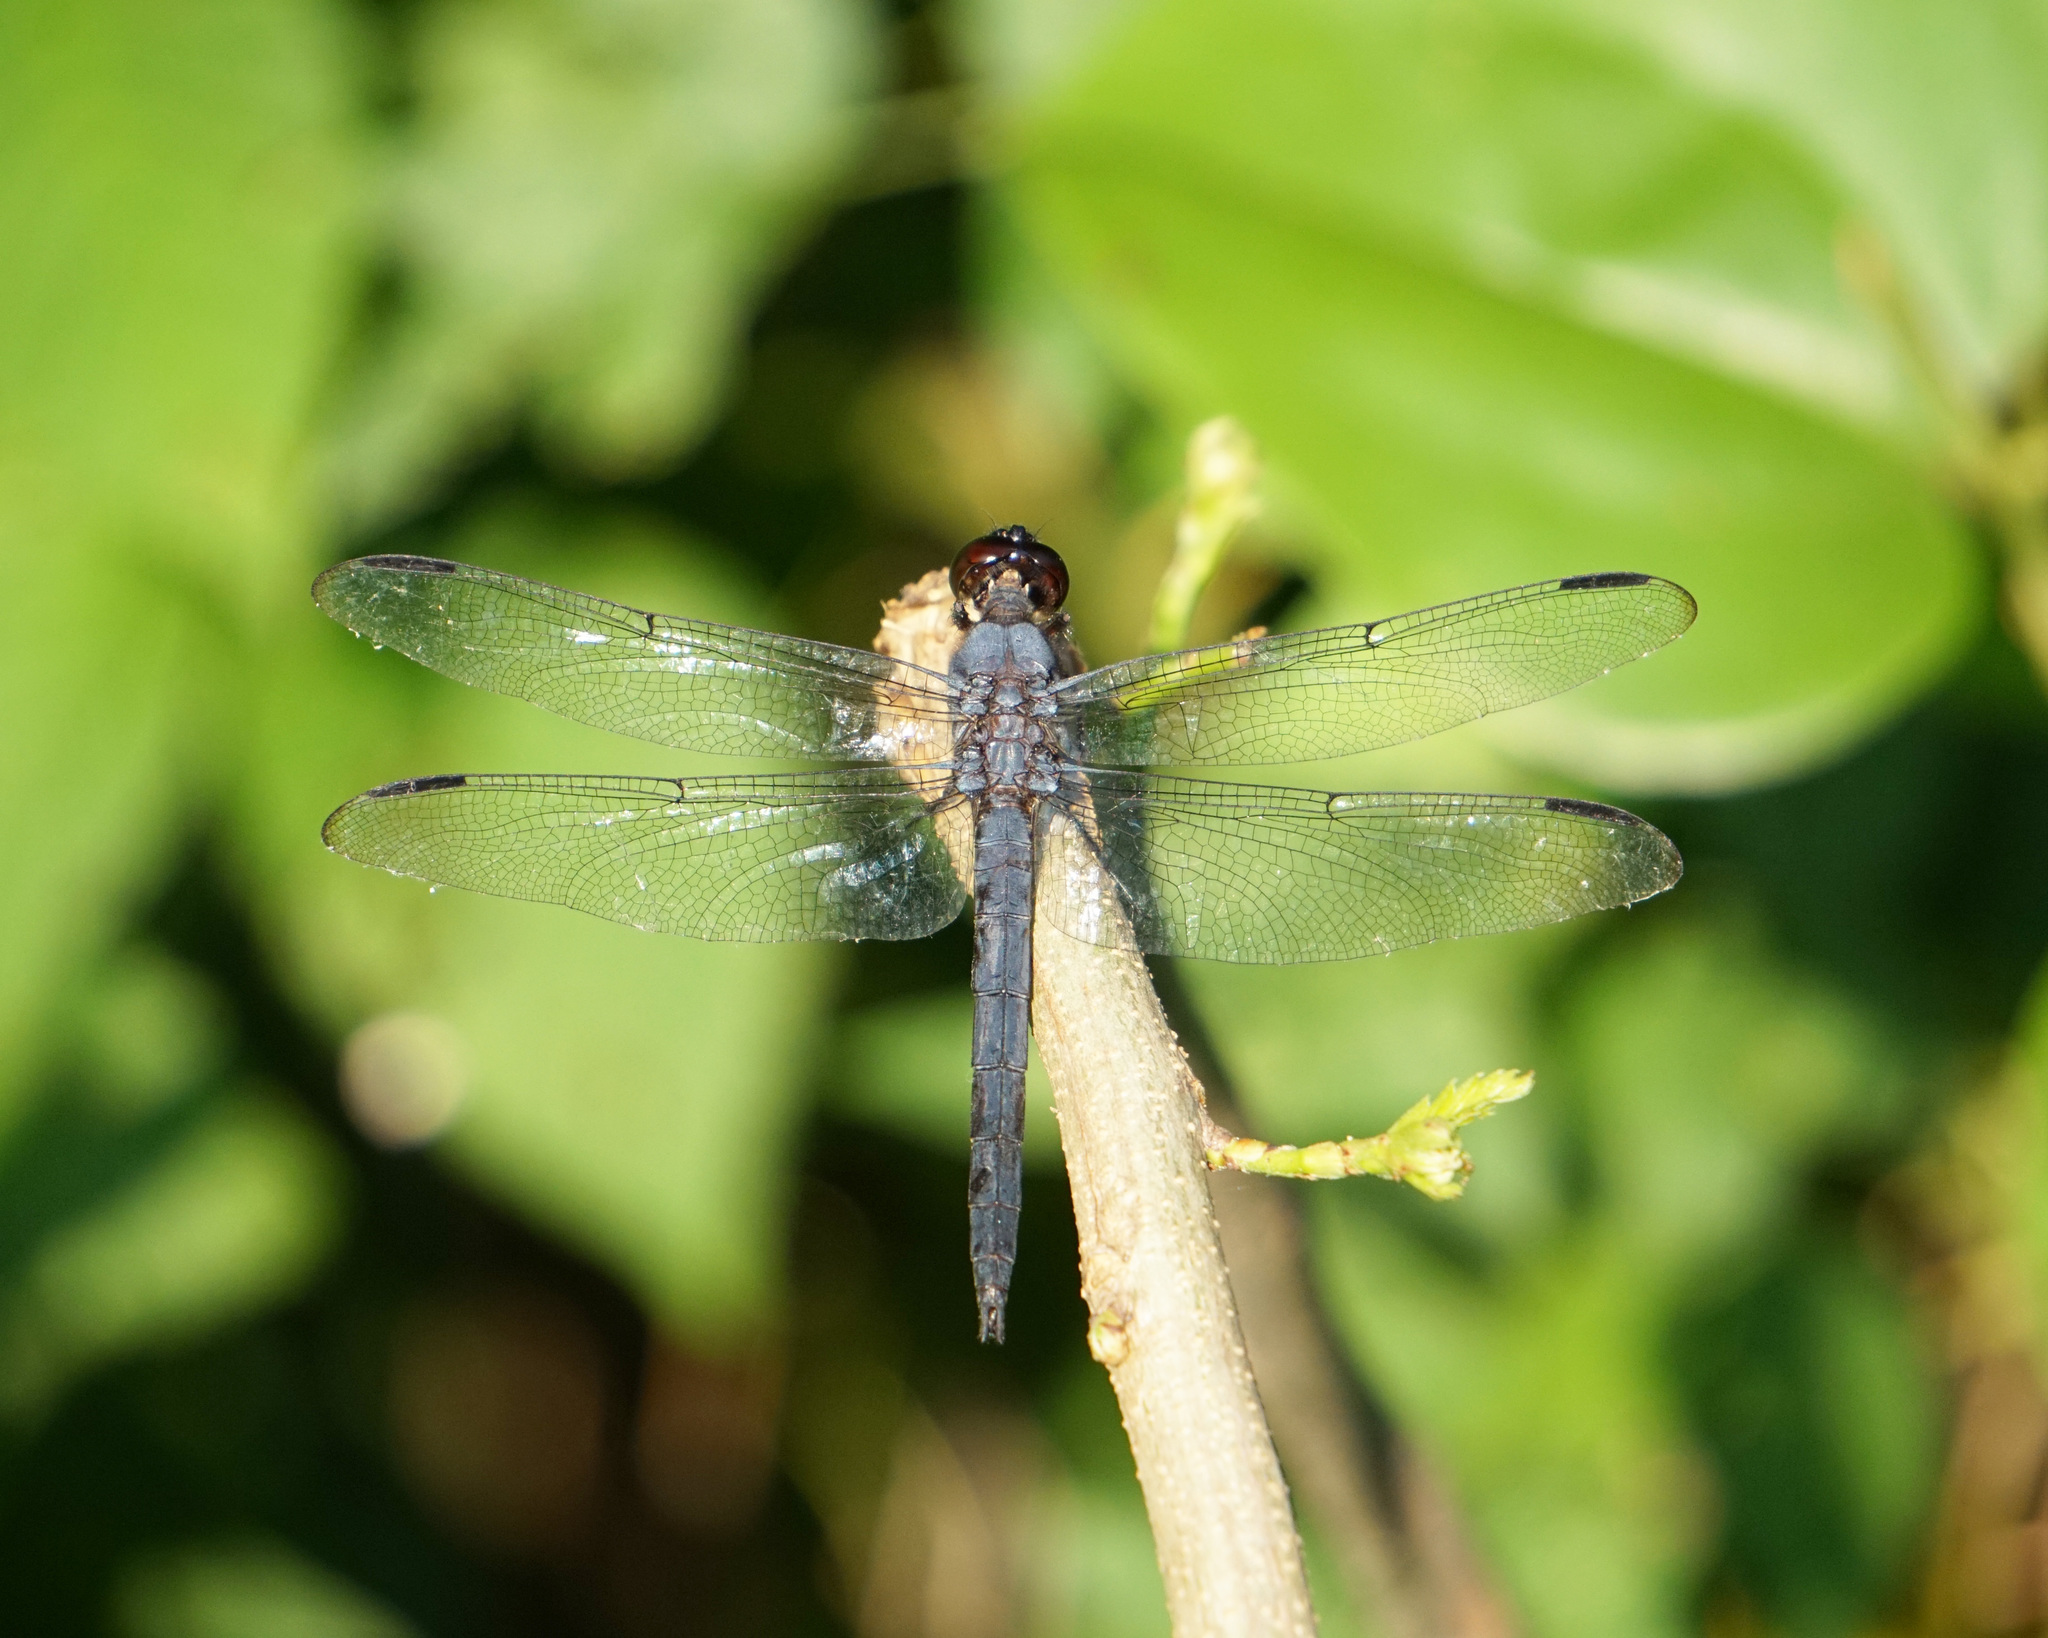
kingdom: Animalia
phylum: Arthropoda
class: Insecta
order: Odonata
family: Libellulidae
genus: Libellula
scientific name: Libellula incesta
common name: Slaty skimmer
